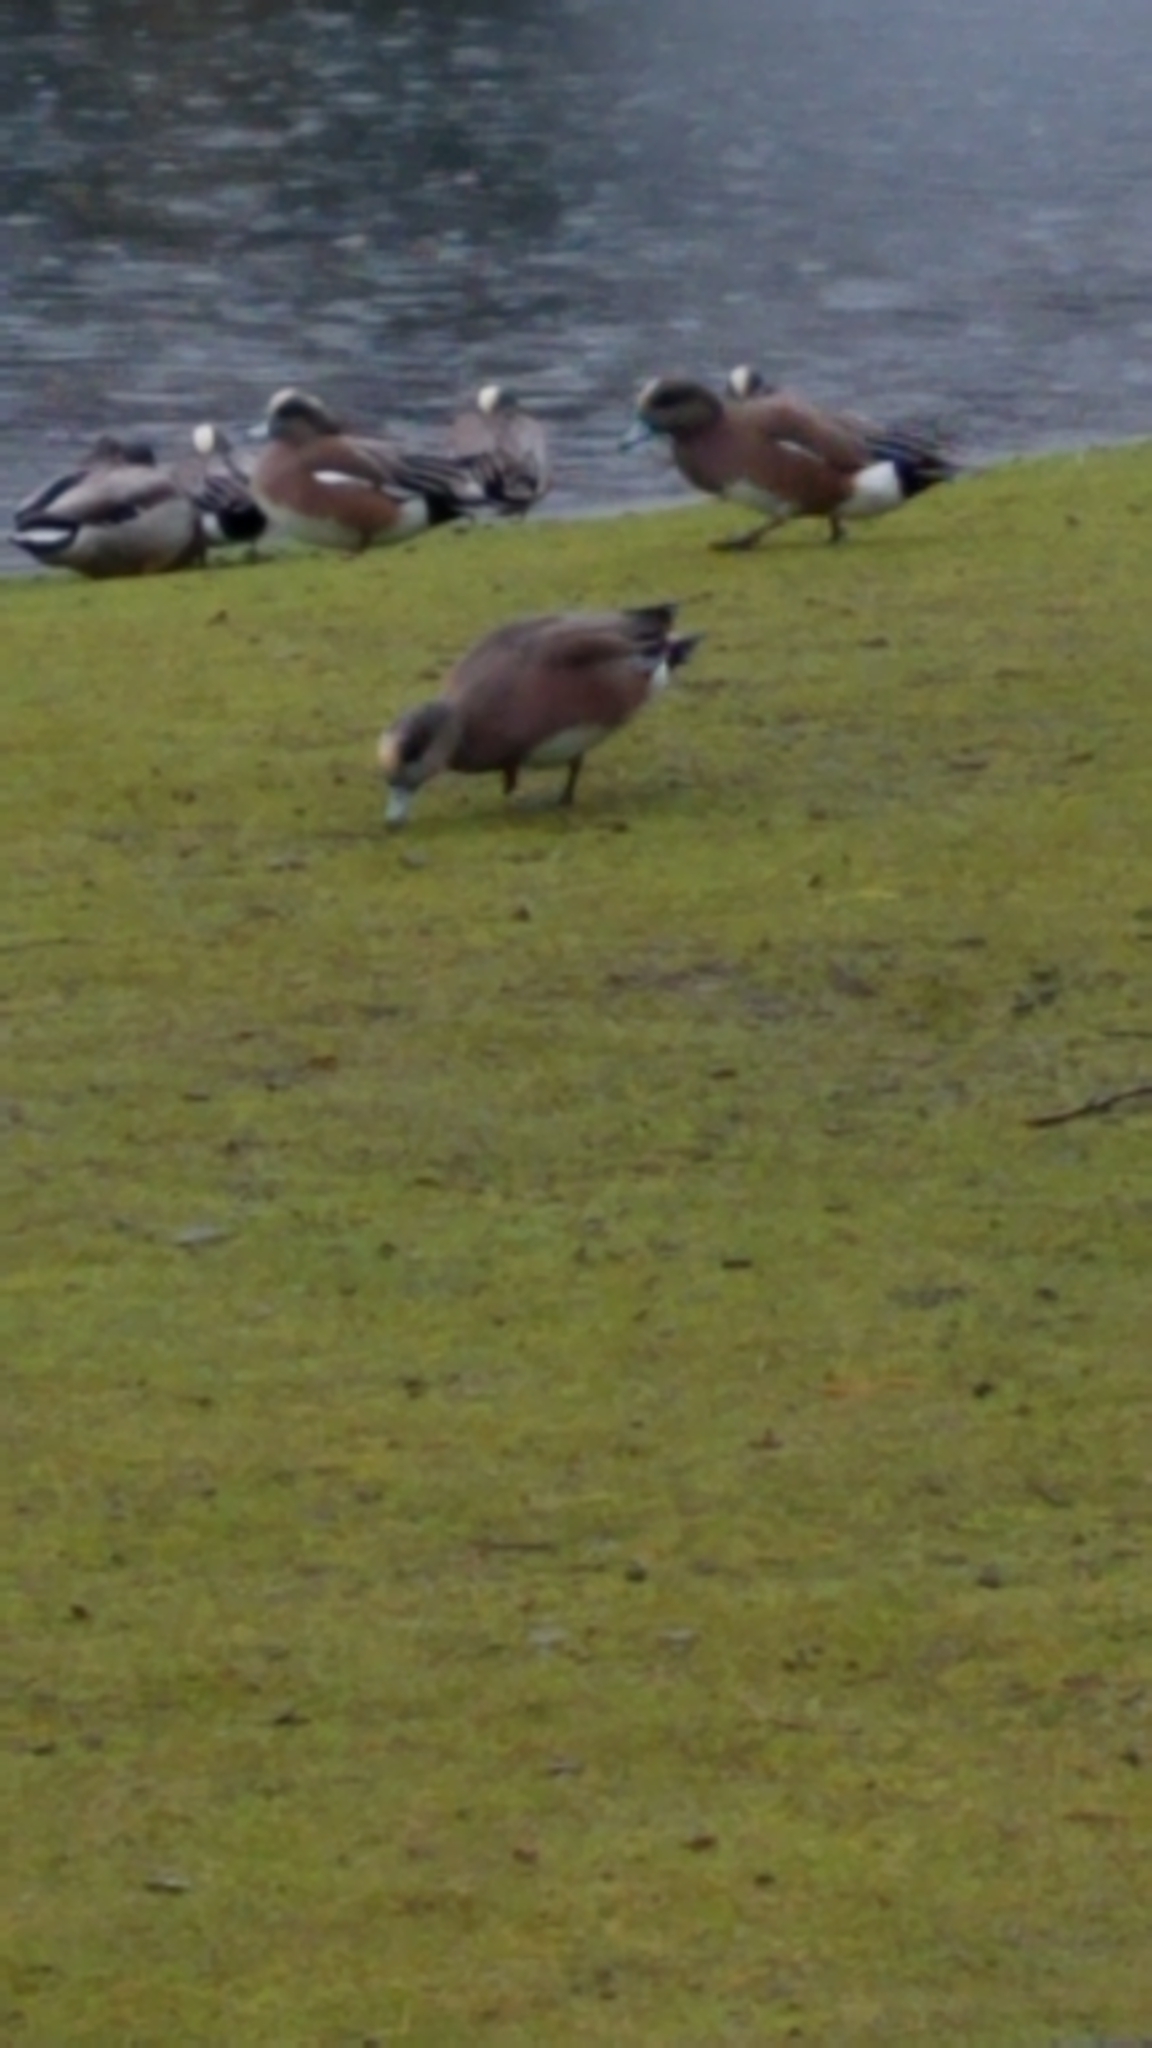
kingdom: Animalia
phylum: Chordata
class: Aves
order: Anseriformes
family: Anatidae
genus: Mareca
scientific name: Mareca americana
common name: American wigeon
